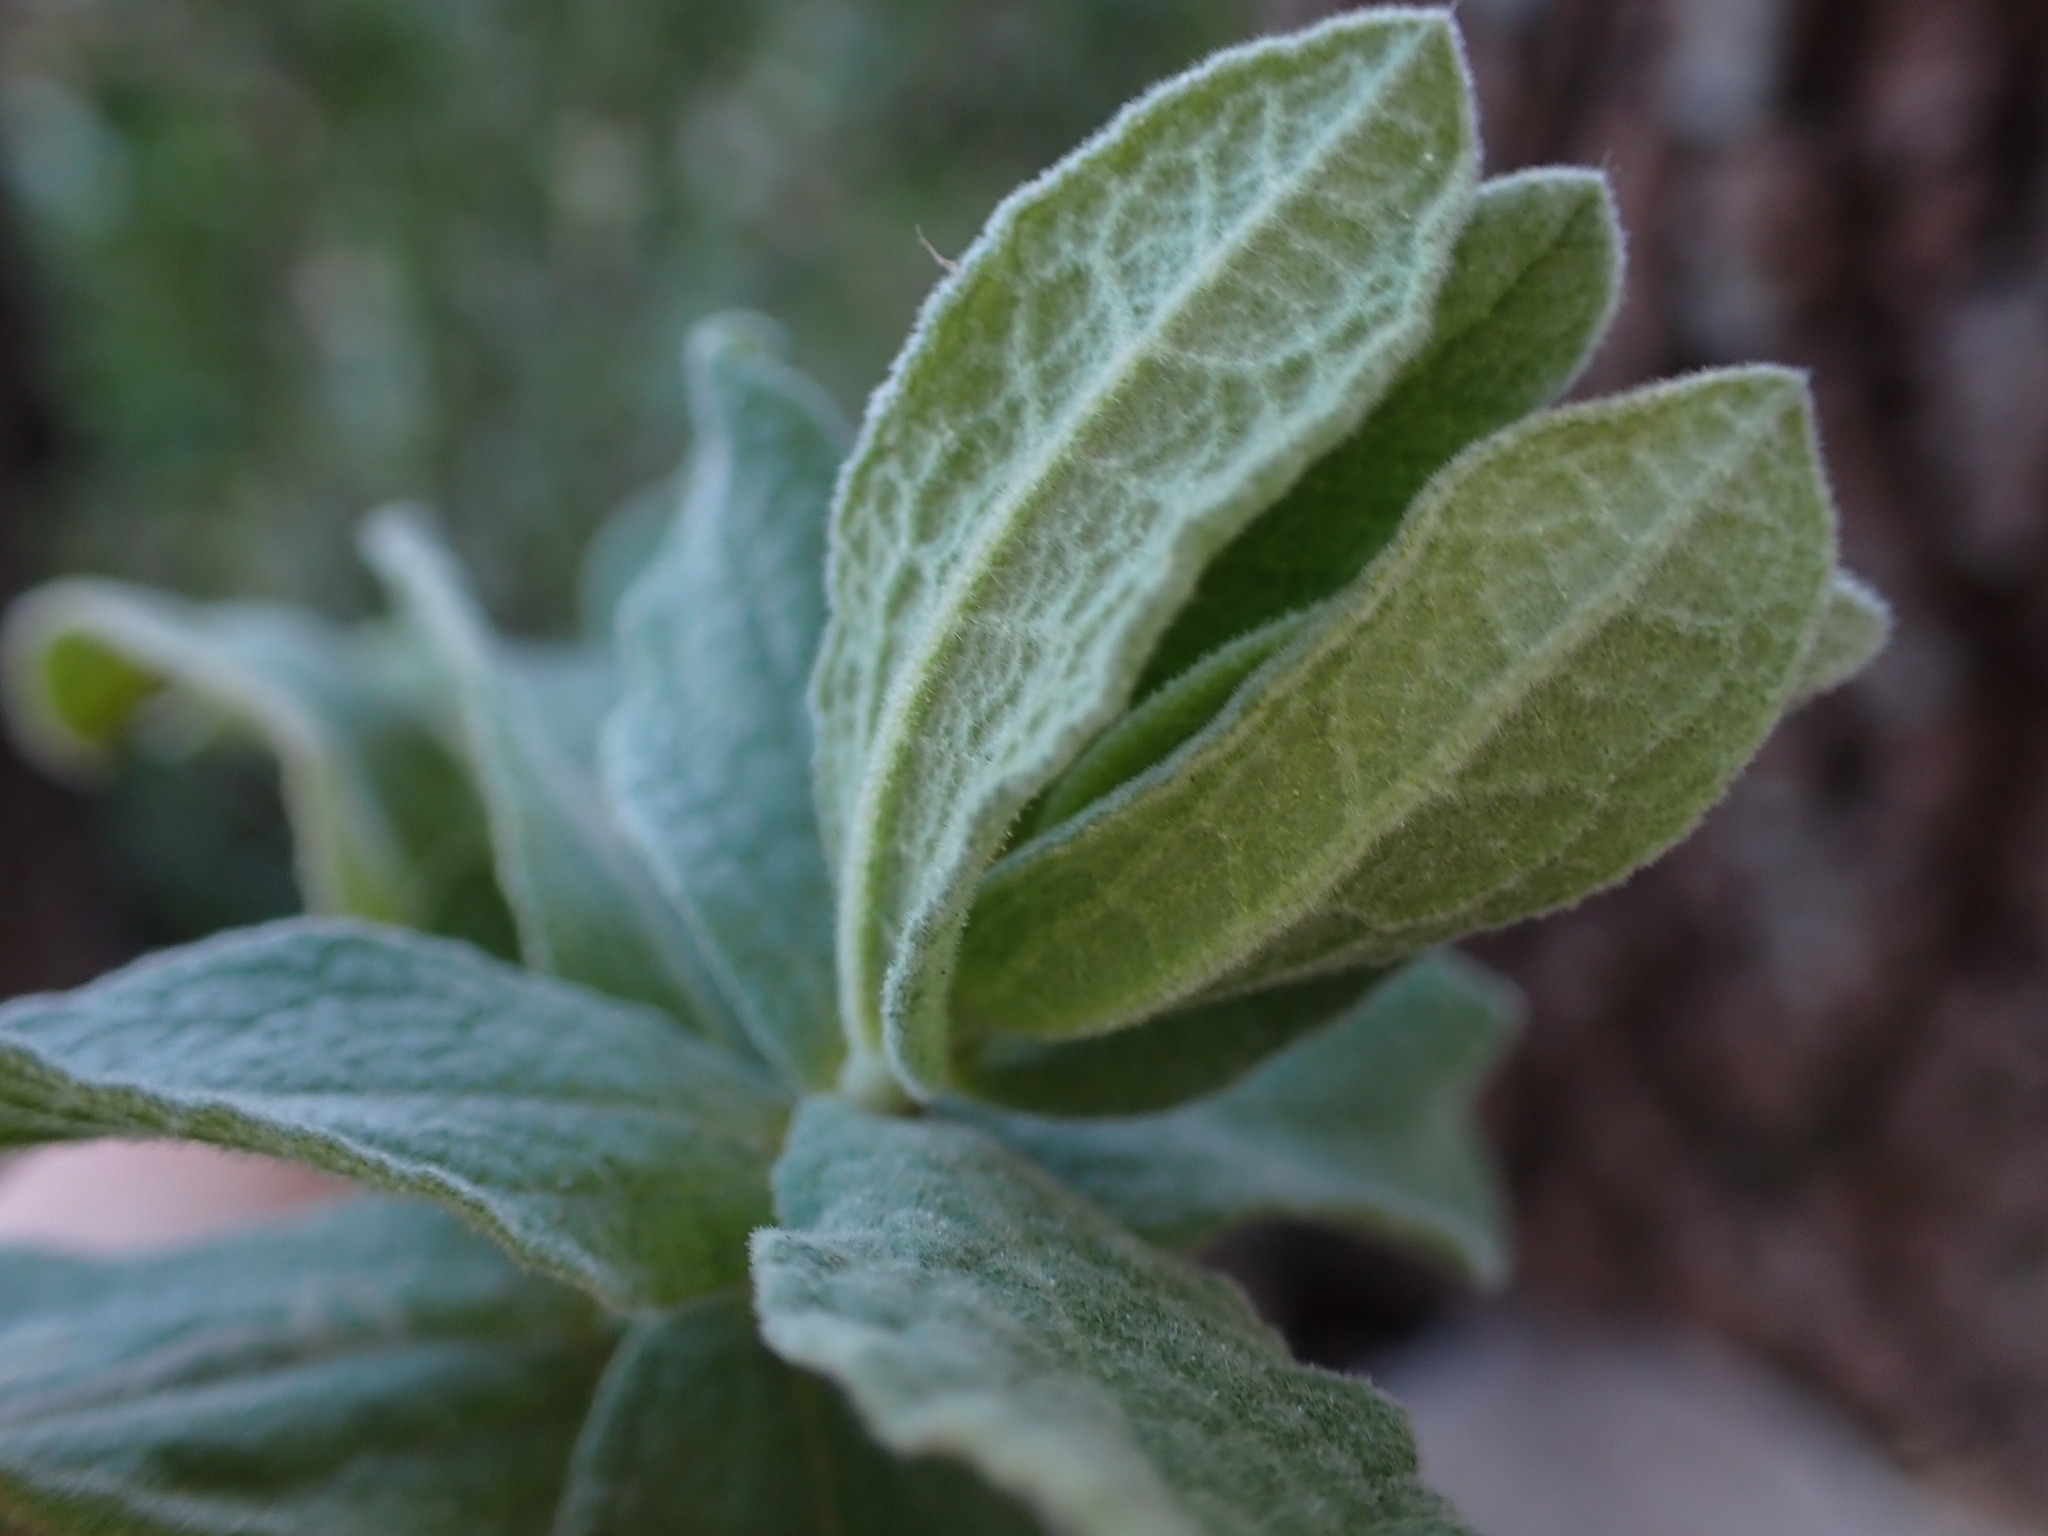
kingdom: Plantae
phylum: Tracheophyta
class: Magnoliopsida
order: Malvales
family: Cistaceae
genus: Cistus
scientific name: Cistus albidus
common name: White-leaf rock-rose
